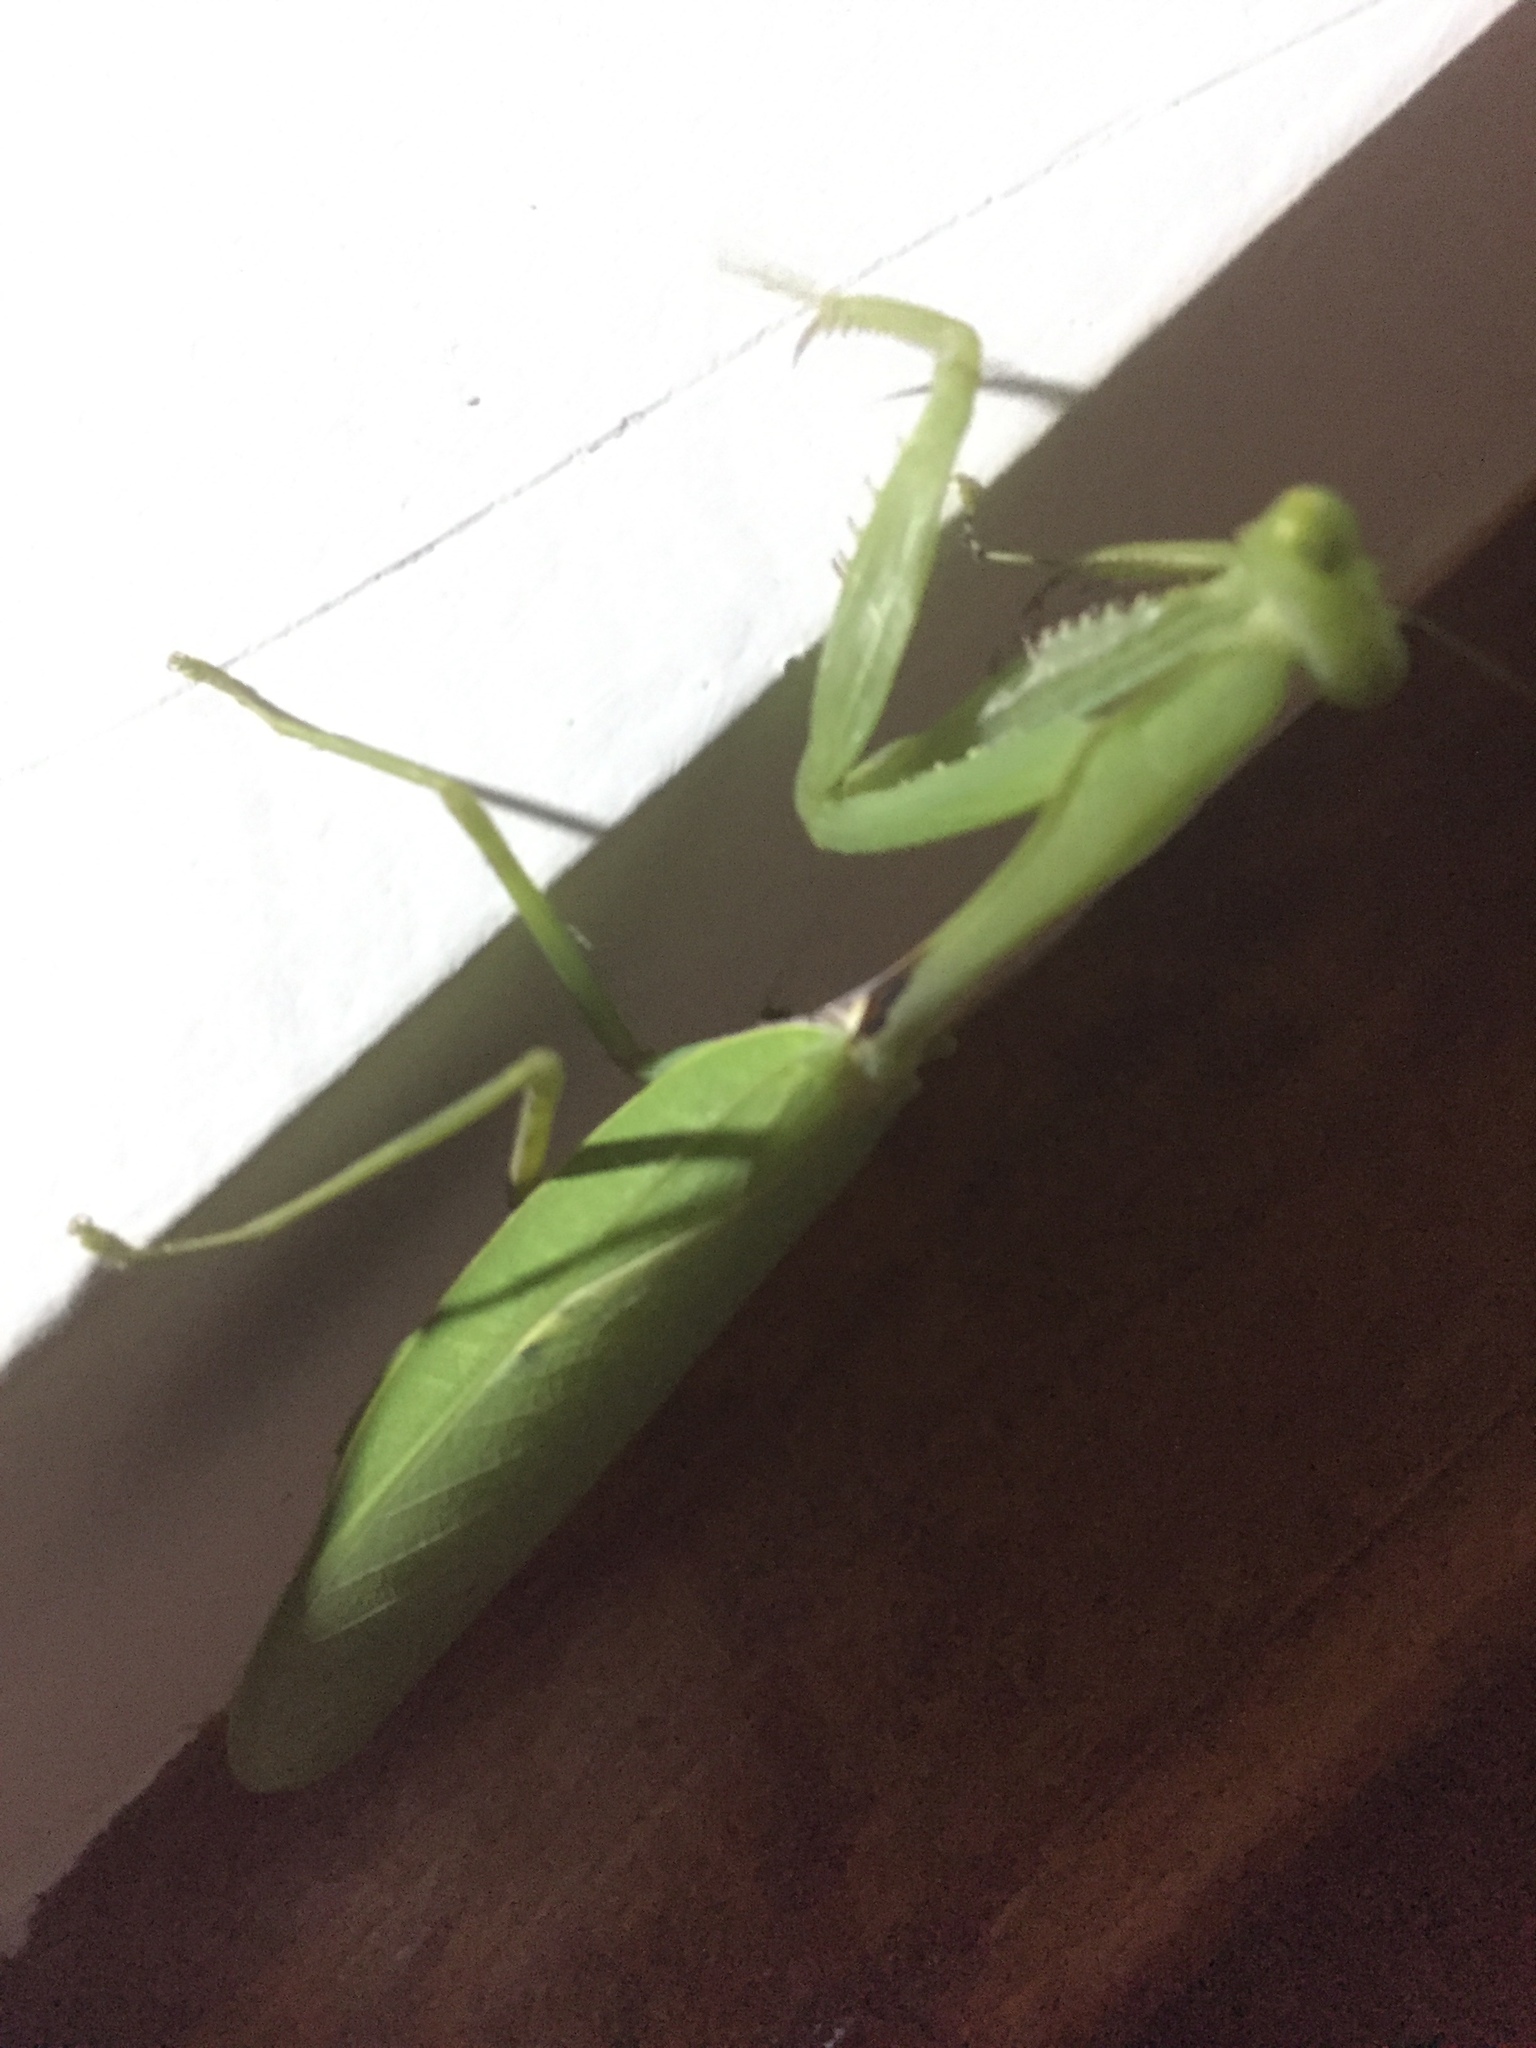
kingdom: Animalia
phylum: Arthropoda
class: Insecta
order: Mantodea
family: Mantidae
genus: Hierodula
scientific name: Hierodula ventralis
